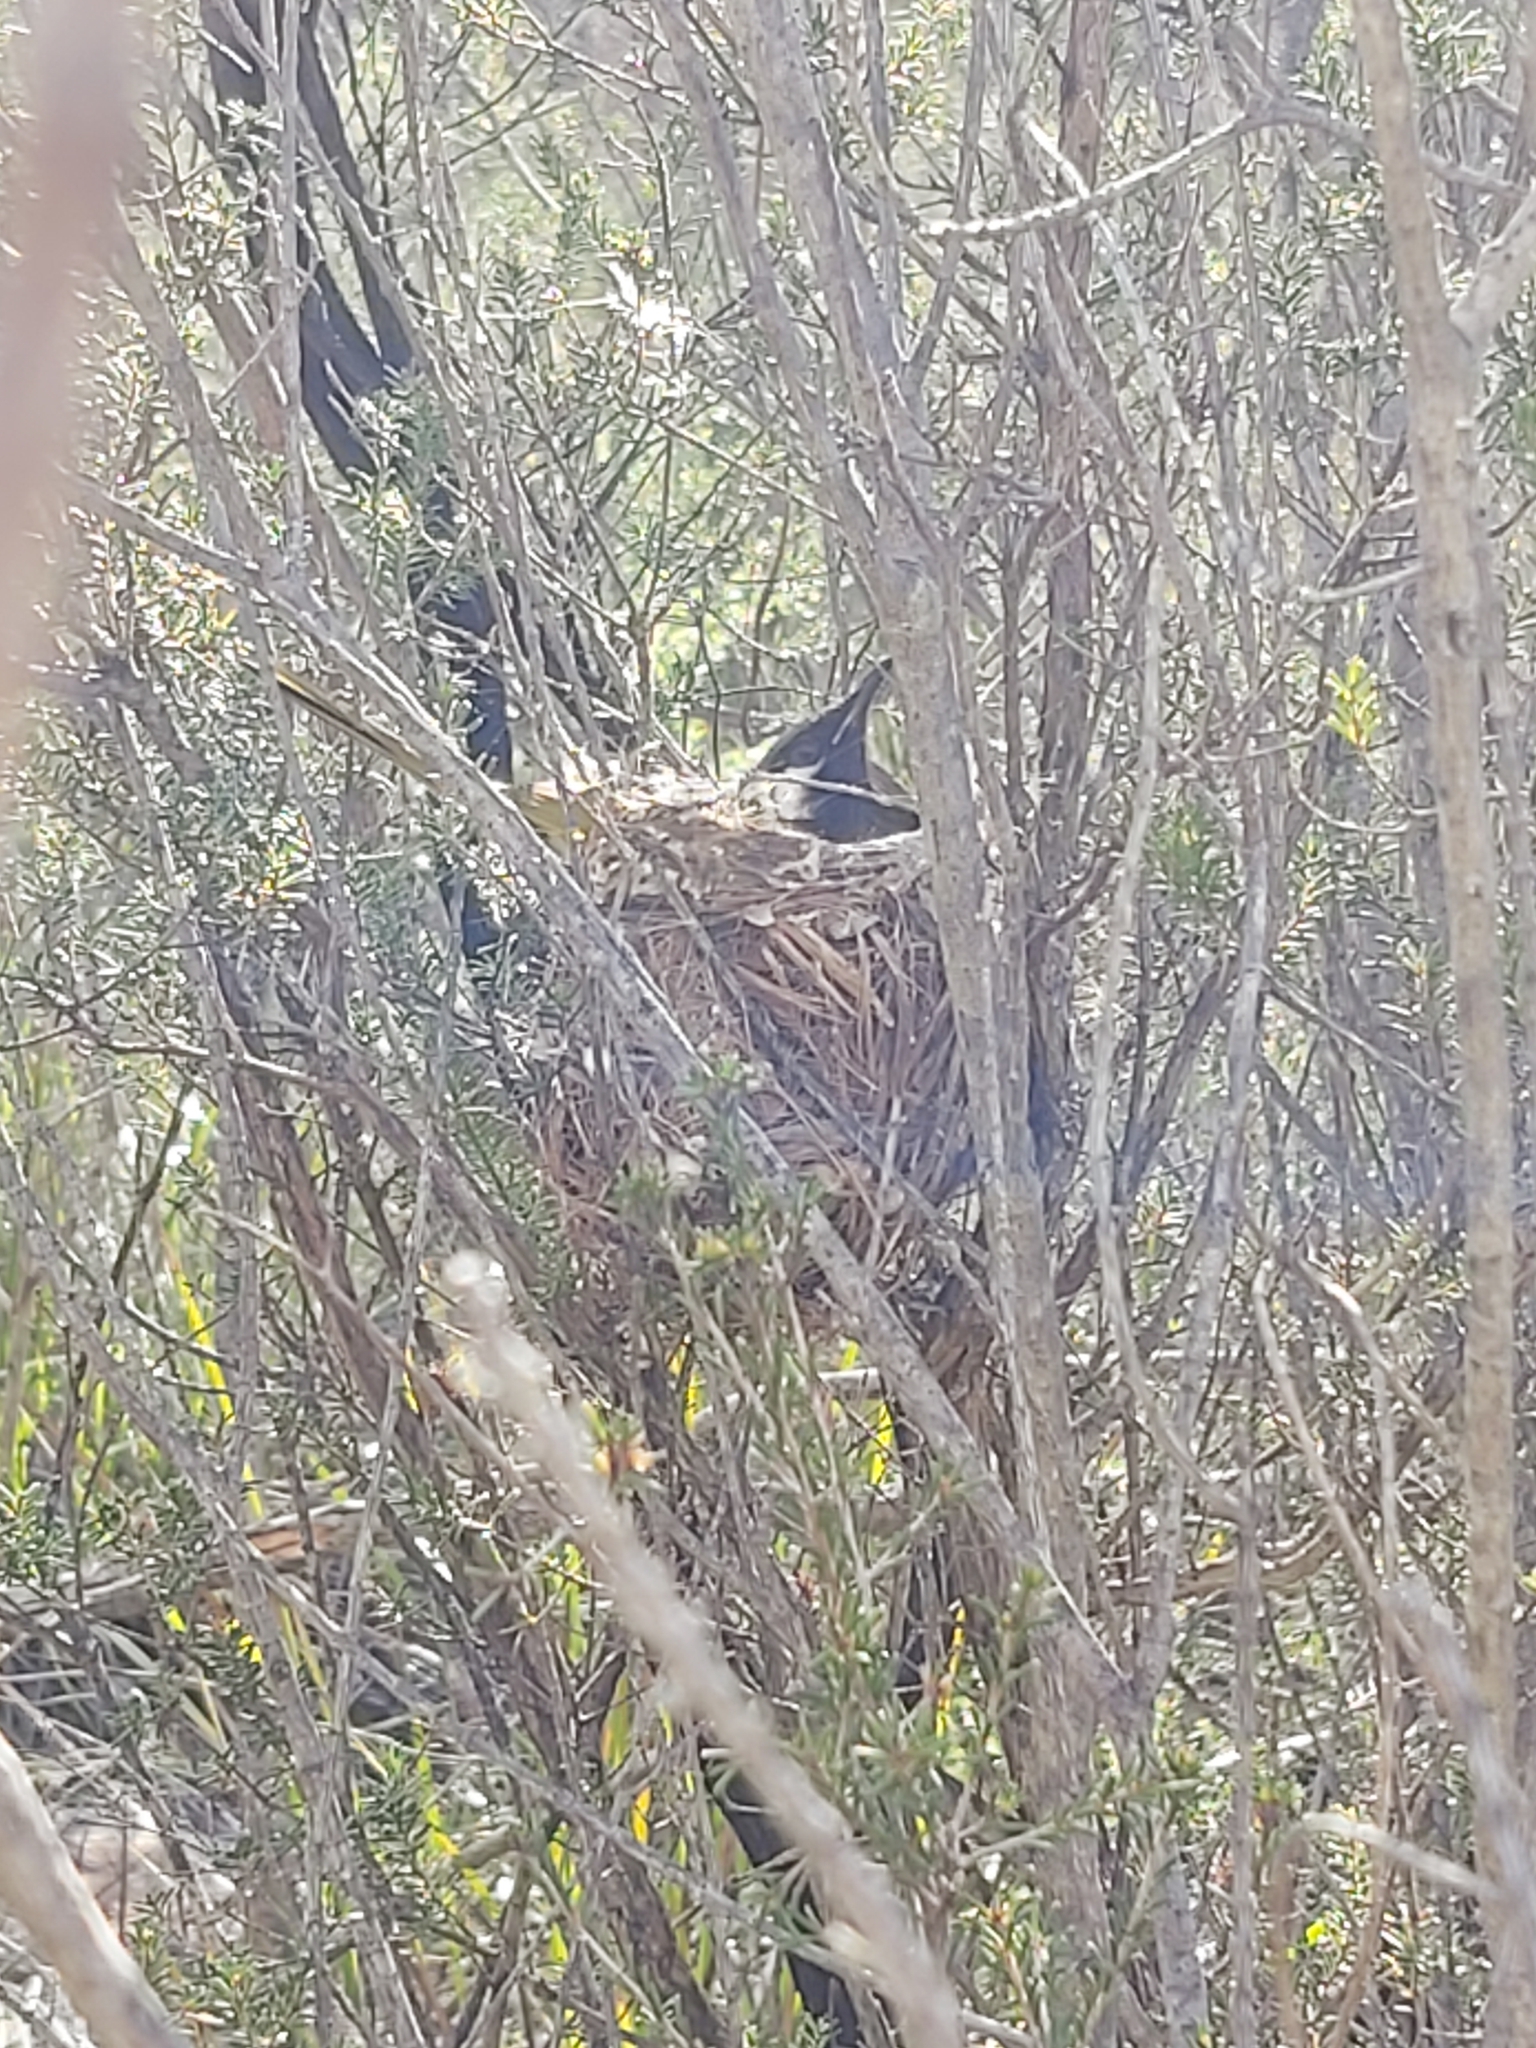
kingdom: Animalia
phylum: Chordata
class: Aves
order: Passeriformes
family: Meliphagidae
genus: Nesoptilotis
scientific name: Nesoptilotis leucotis
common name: White-eared honeyeater
